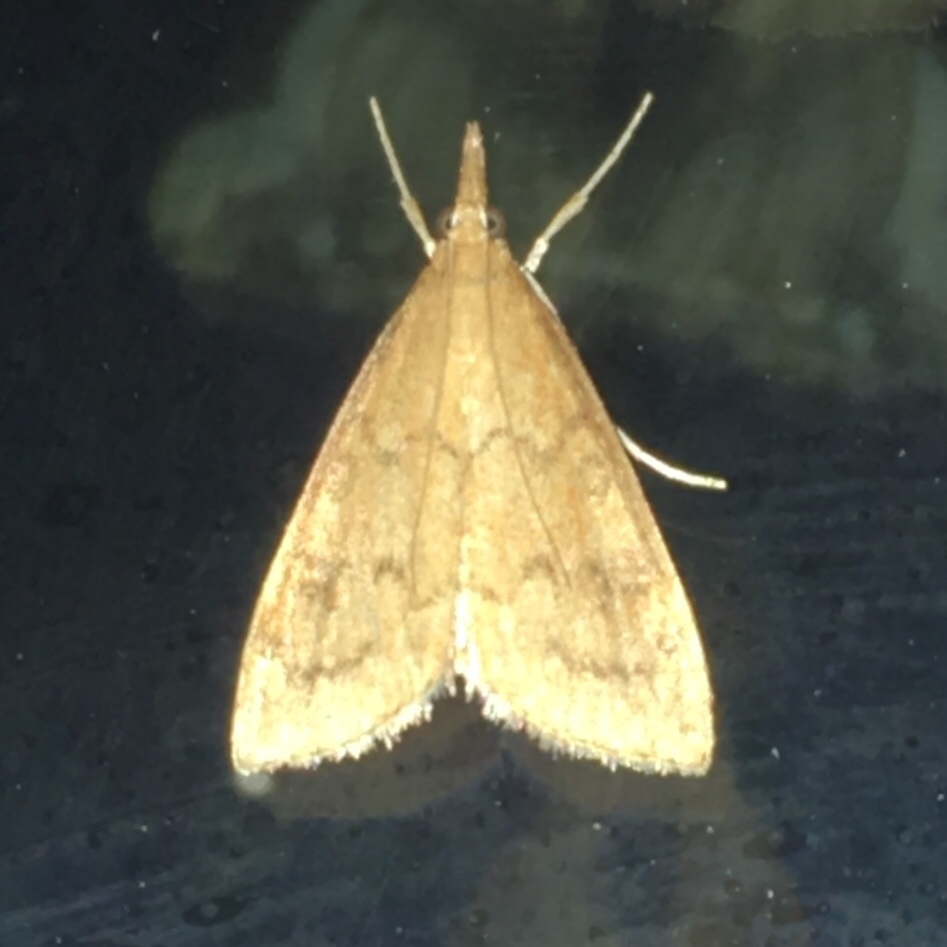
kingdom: Animalia
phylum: Arthropoda
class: Insecta
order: Lepidoptera
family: Crambidae
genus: Udea
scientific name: Udea rubigalis
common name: Celery leaftier moth
